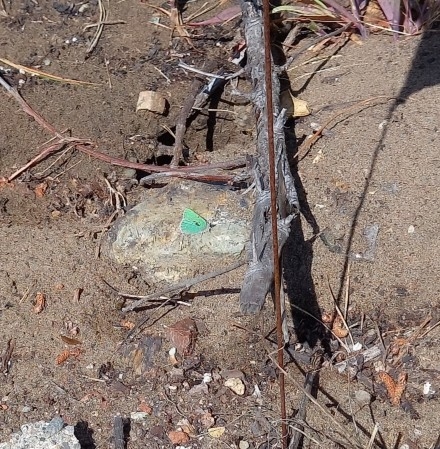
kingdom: Animalia
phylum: Arthropoda
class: Insecta
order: Lepidoptera
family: Lycaenidae
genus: Callophrys
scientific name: Callophrys viridis
